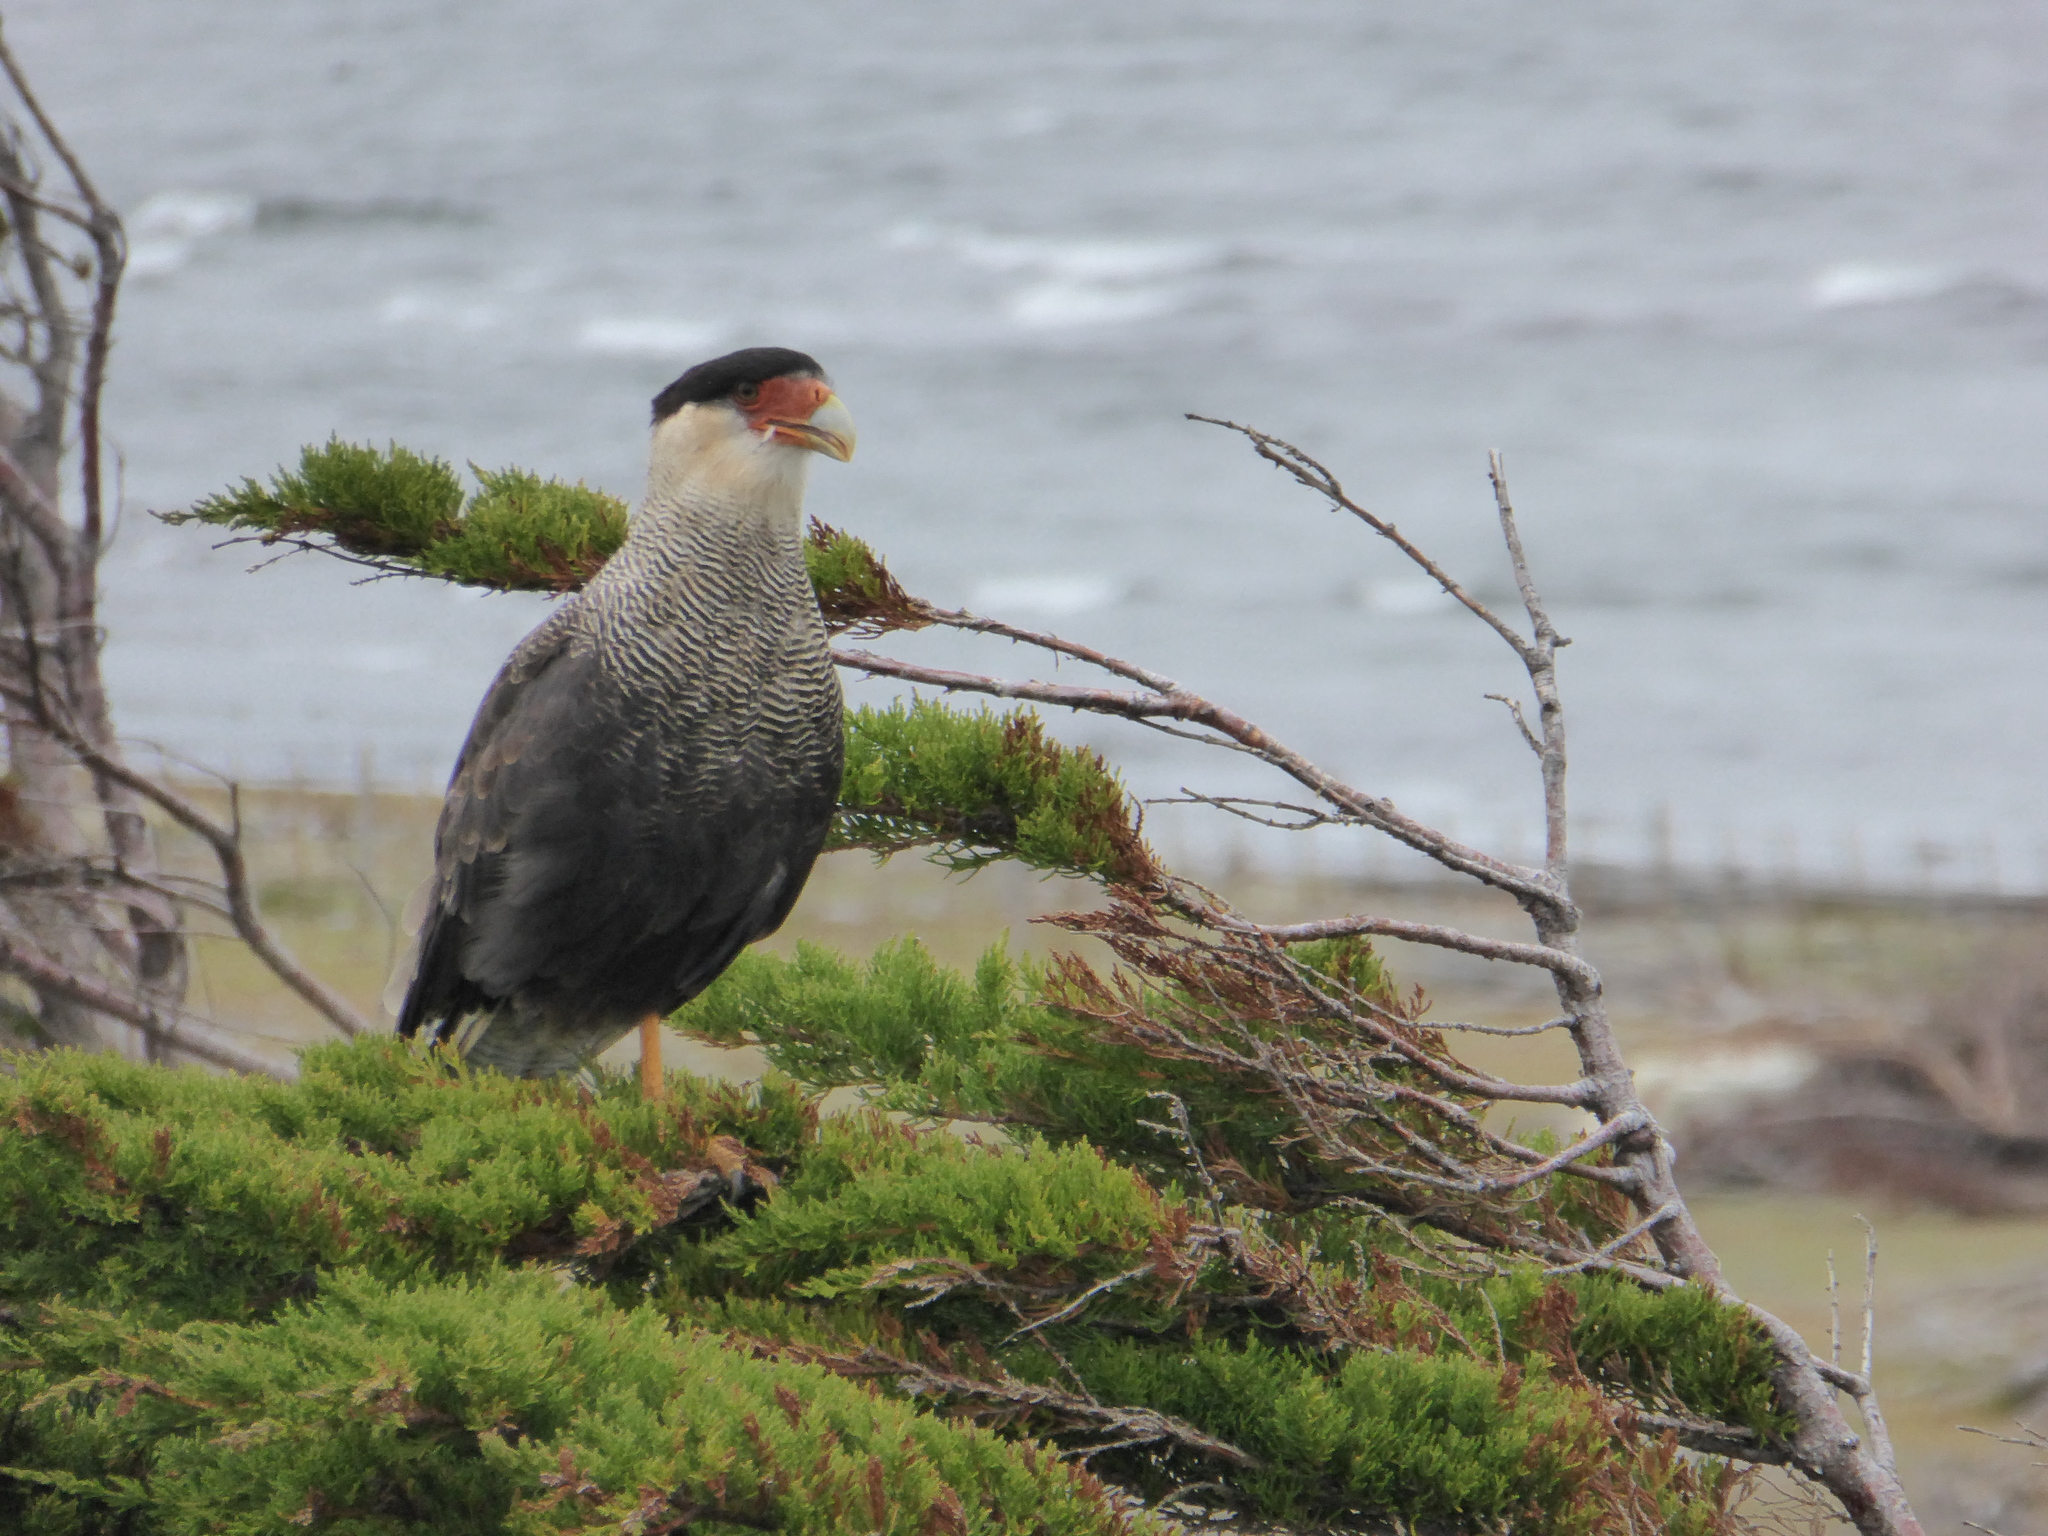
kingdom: Animalia
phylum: Chordata
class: Aves
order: Falconiformes
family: Falconidae
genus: Caracara
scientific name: Caracara plancus
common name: Southern caracara
